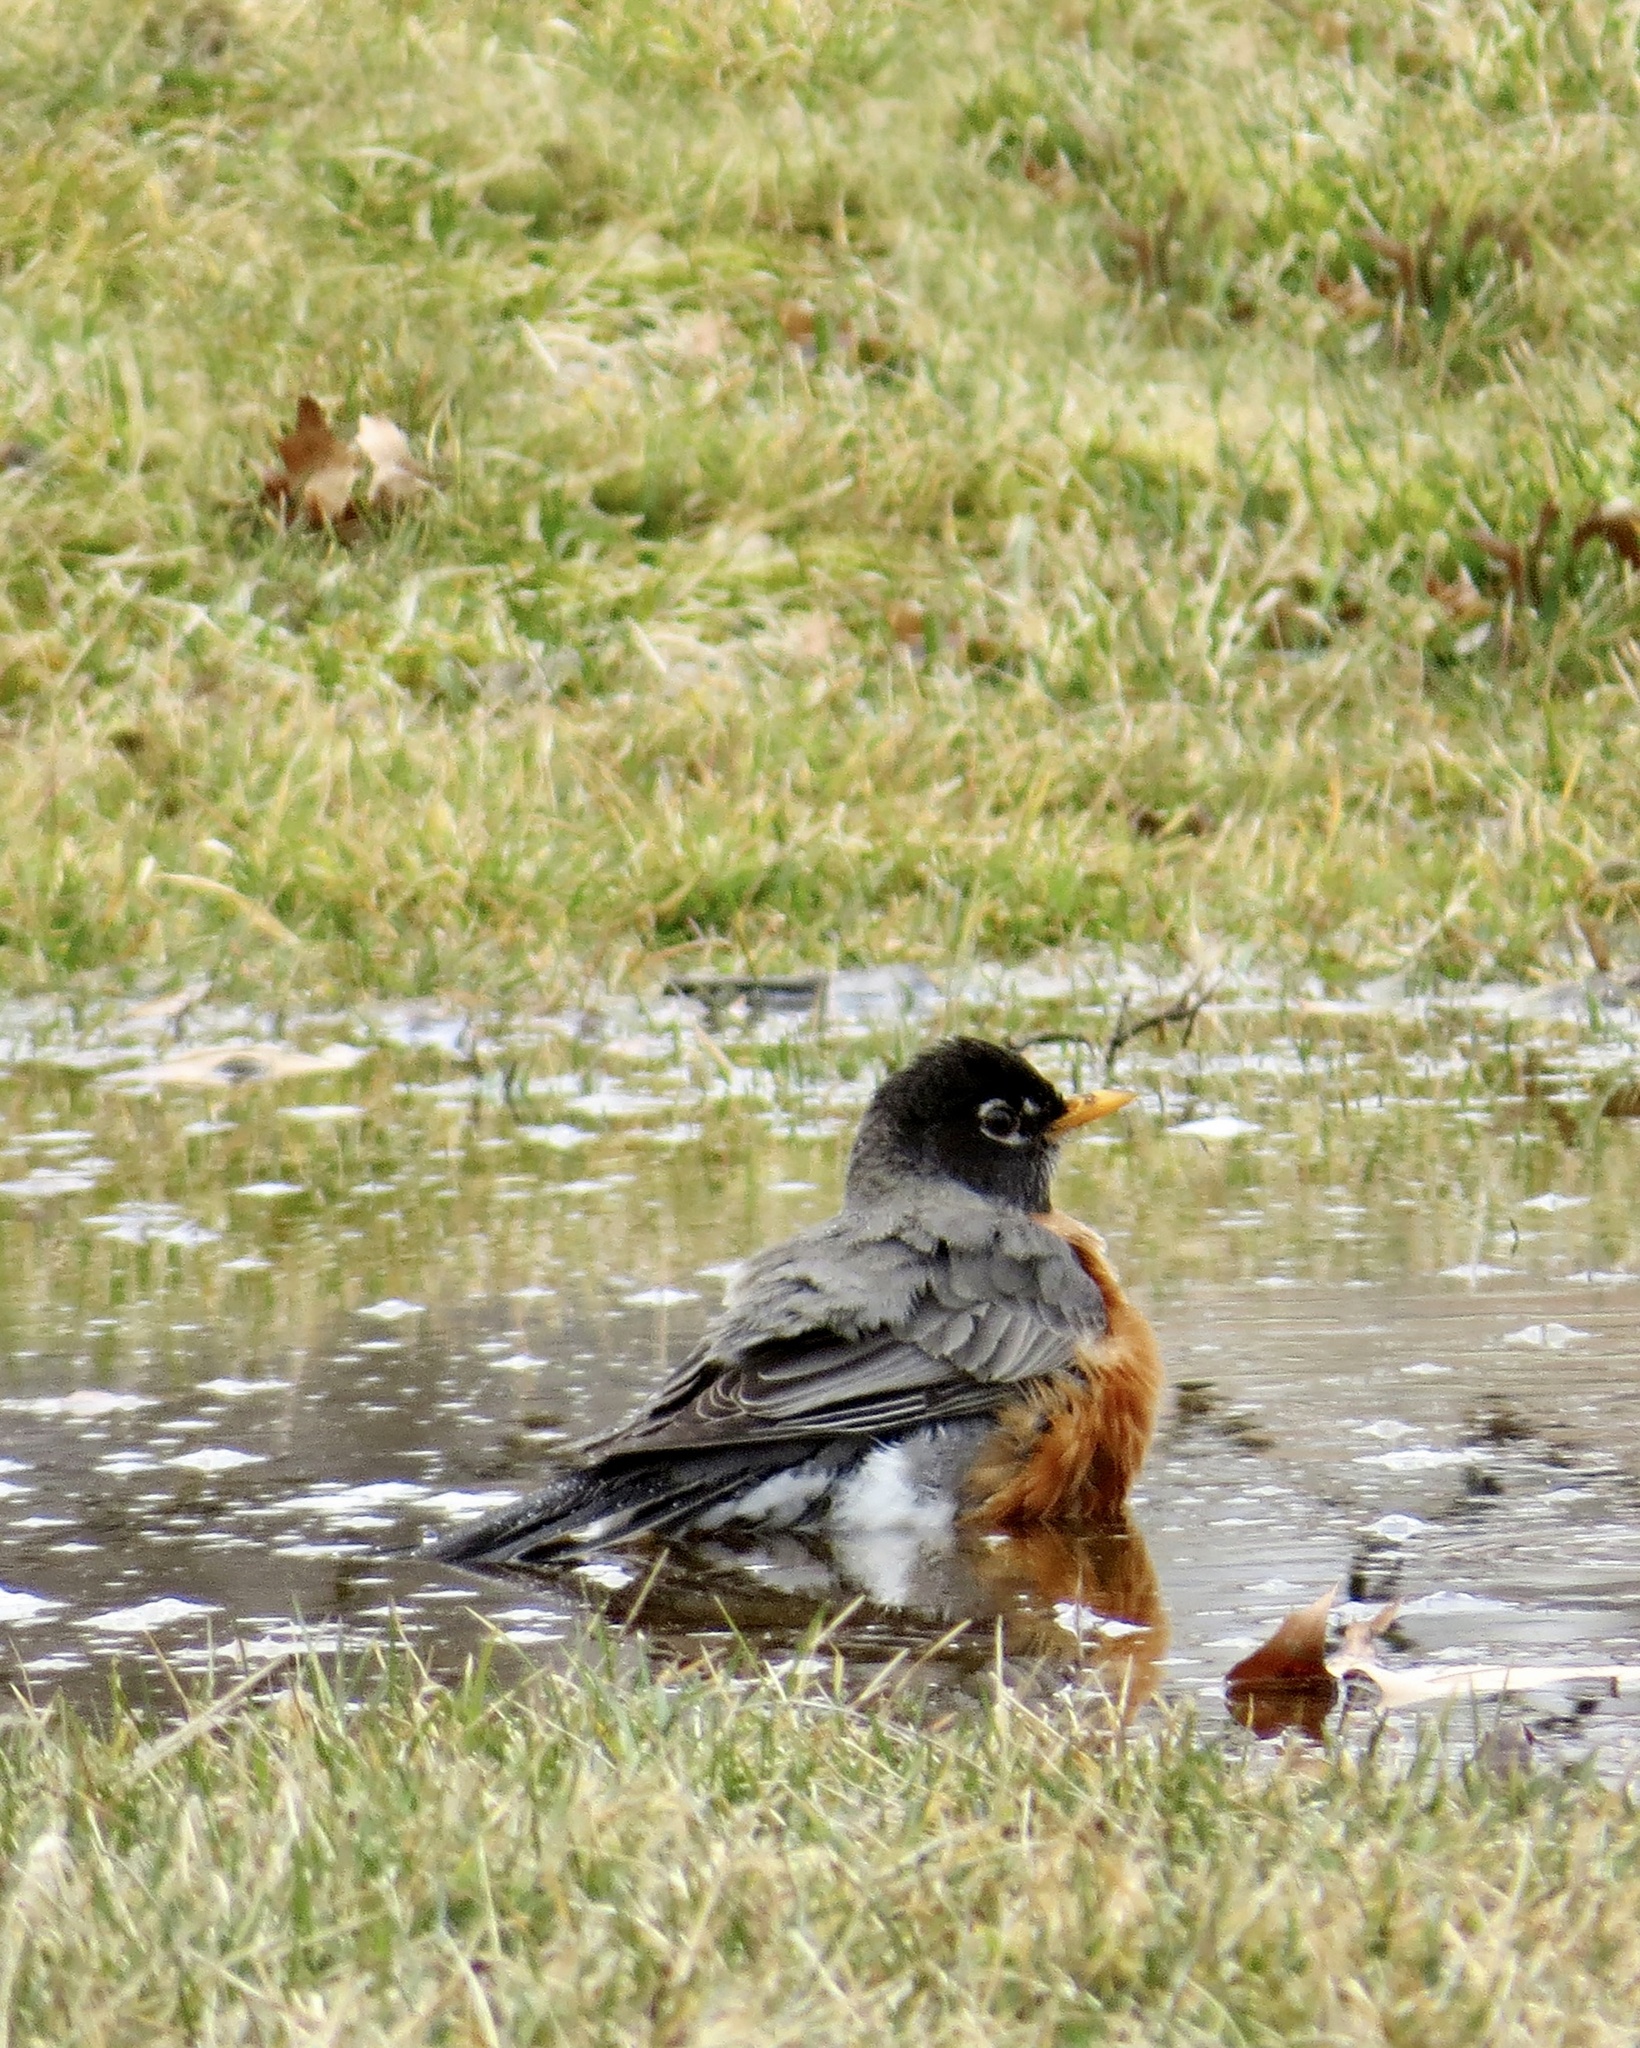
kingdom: Animalia
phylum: Chordata
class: Aves
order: Passeriformes
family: Turdidae
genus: Turdus
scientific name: Turdus migratorius
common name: American robin
